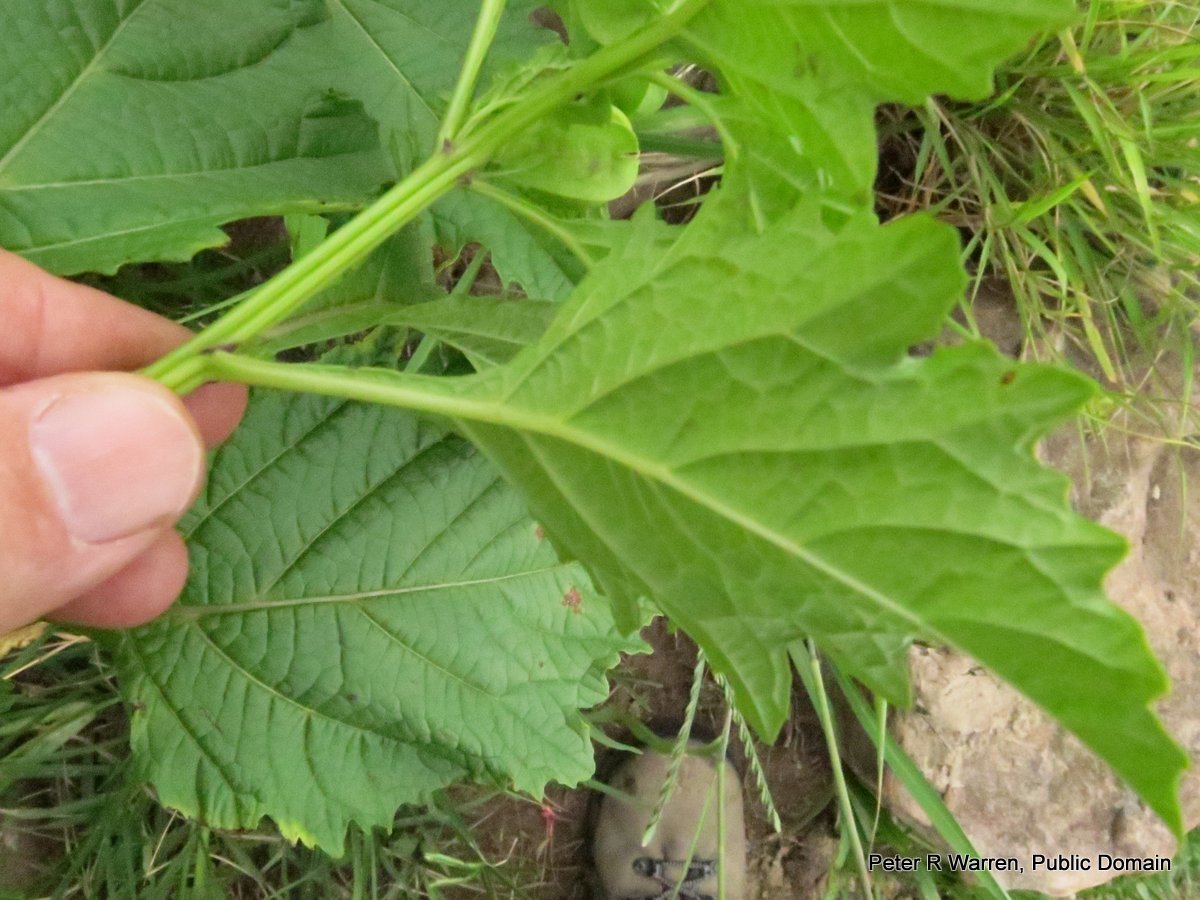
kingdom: Plantae
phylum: Tracheophyta
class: Magnoliopsida
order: Solanales
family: Solanaceae
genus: Nicandra
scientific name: Nicandra physalodes
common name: Apple-of-peru
